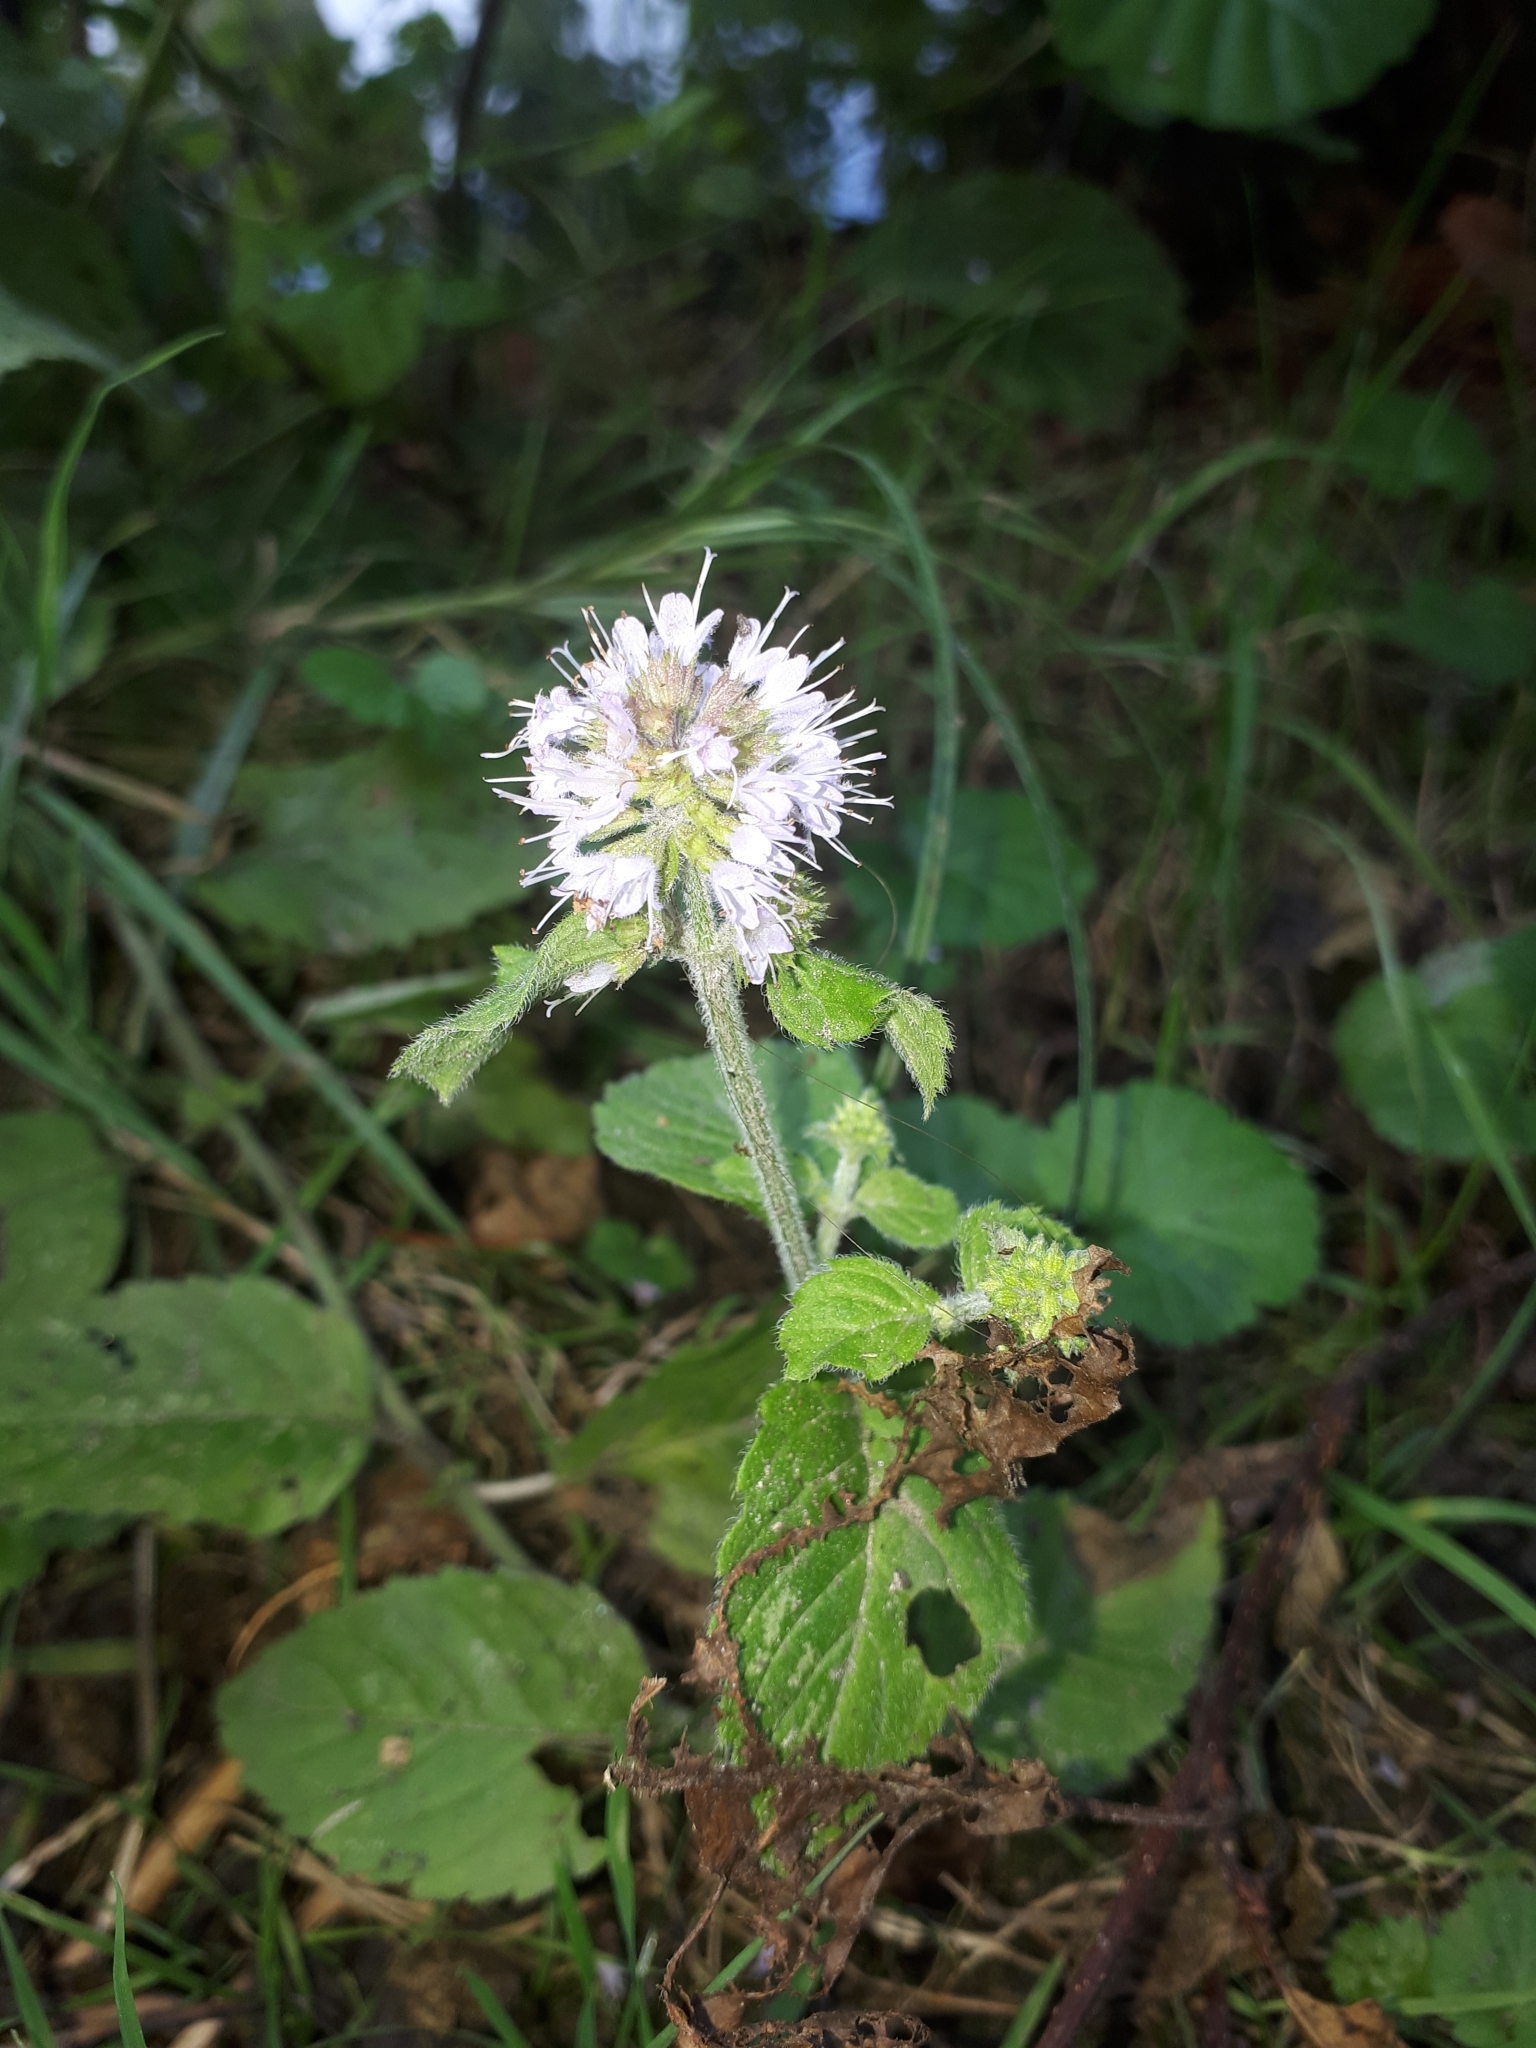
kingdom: Plantae
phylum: Tracheophyta
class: Magnoliopsida
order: Lamiales
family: Lamiaceae
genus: Mentha
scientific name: Mentha aquatica
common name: Water mint
